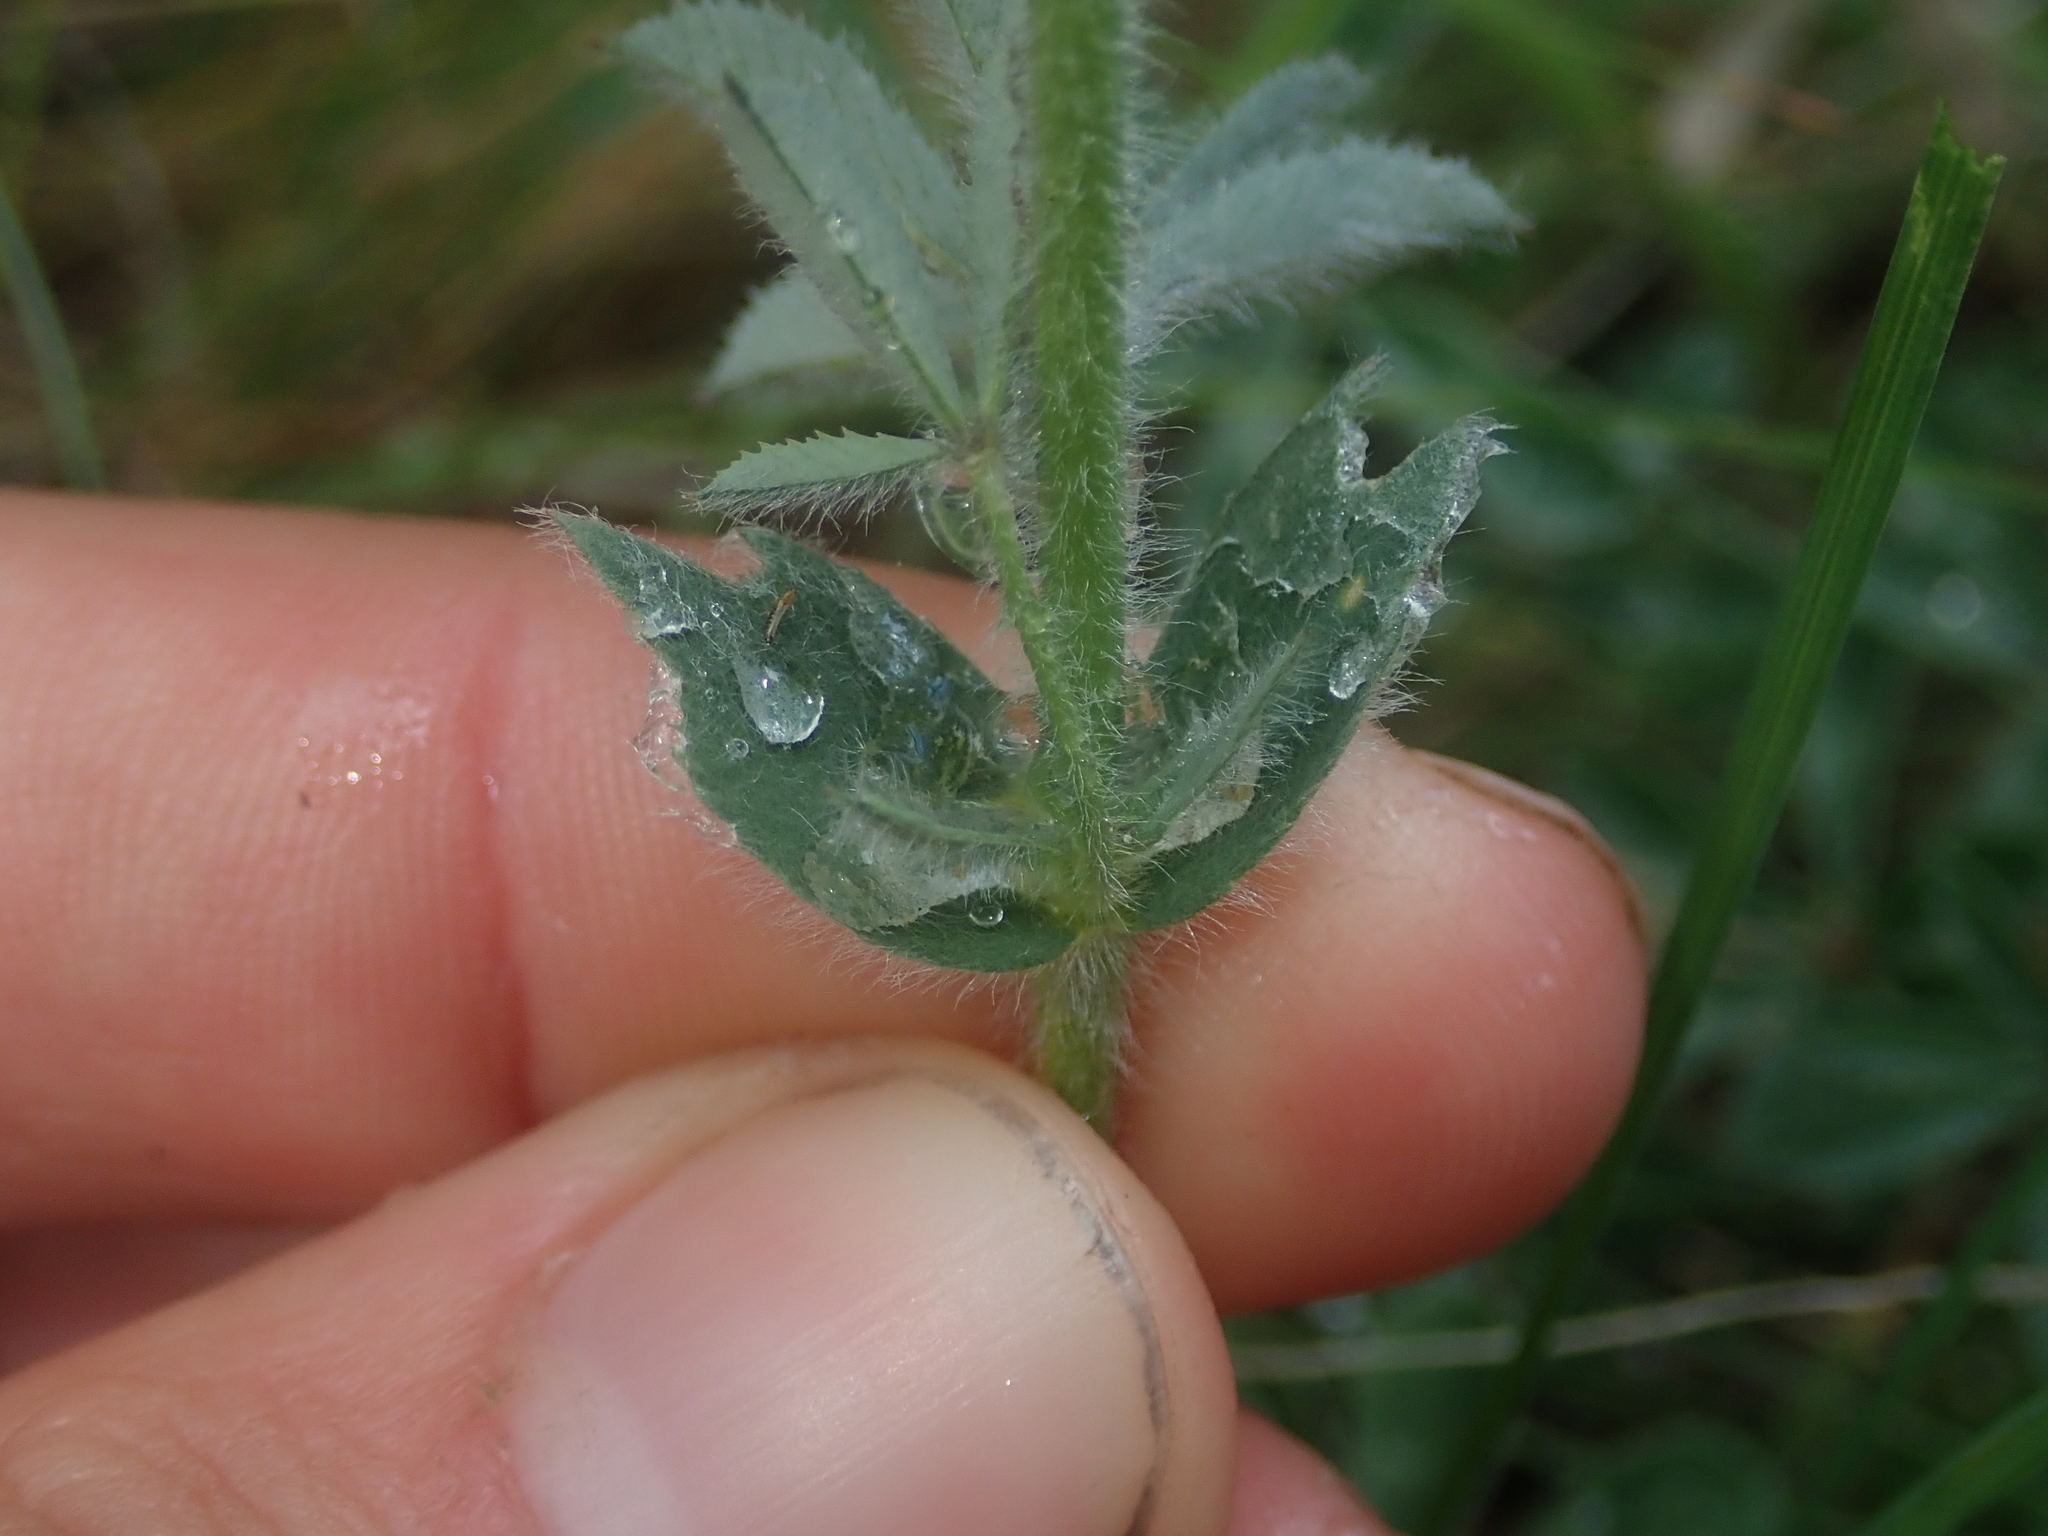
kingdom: Plantae
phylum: Tracheophyta
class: Magnoliopsida
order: Fabales
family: Fabaceae
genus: Trifolium
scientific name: Trifolium macrocephalum
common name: Large-head clover
